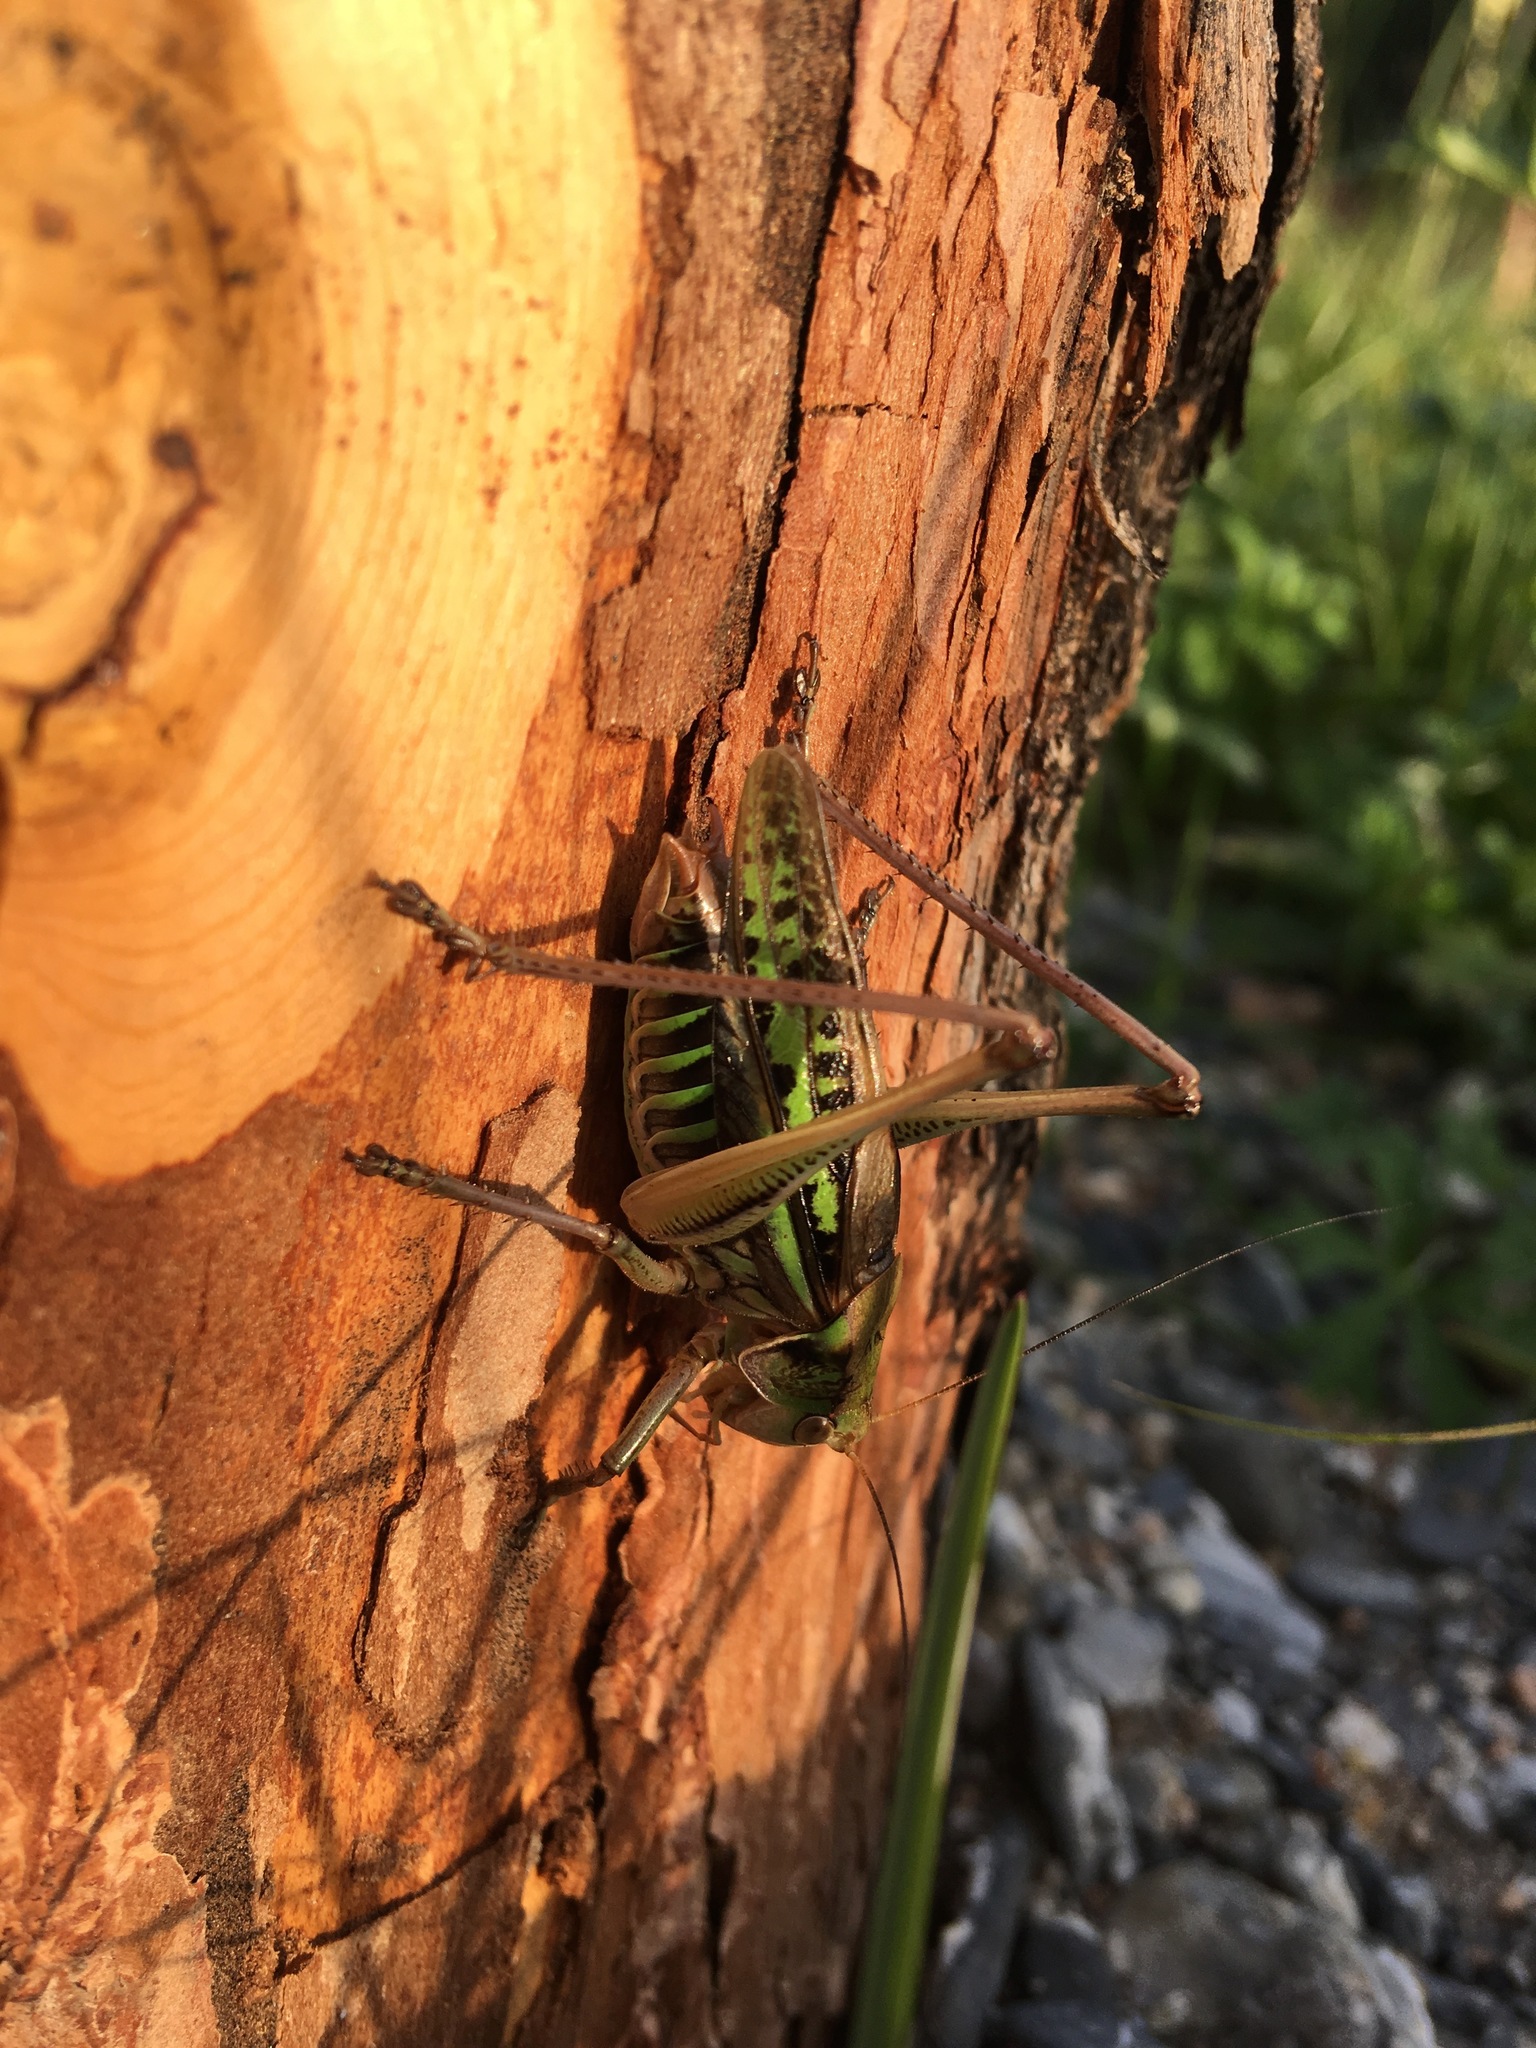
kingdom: Animalia
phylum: Arthropoda
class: Insecta
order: Orthoptera
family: Tettigoniidae
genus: Gampsocleis
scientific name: Gampsocleis sedakovii
